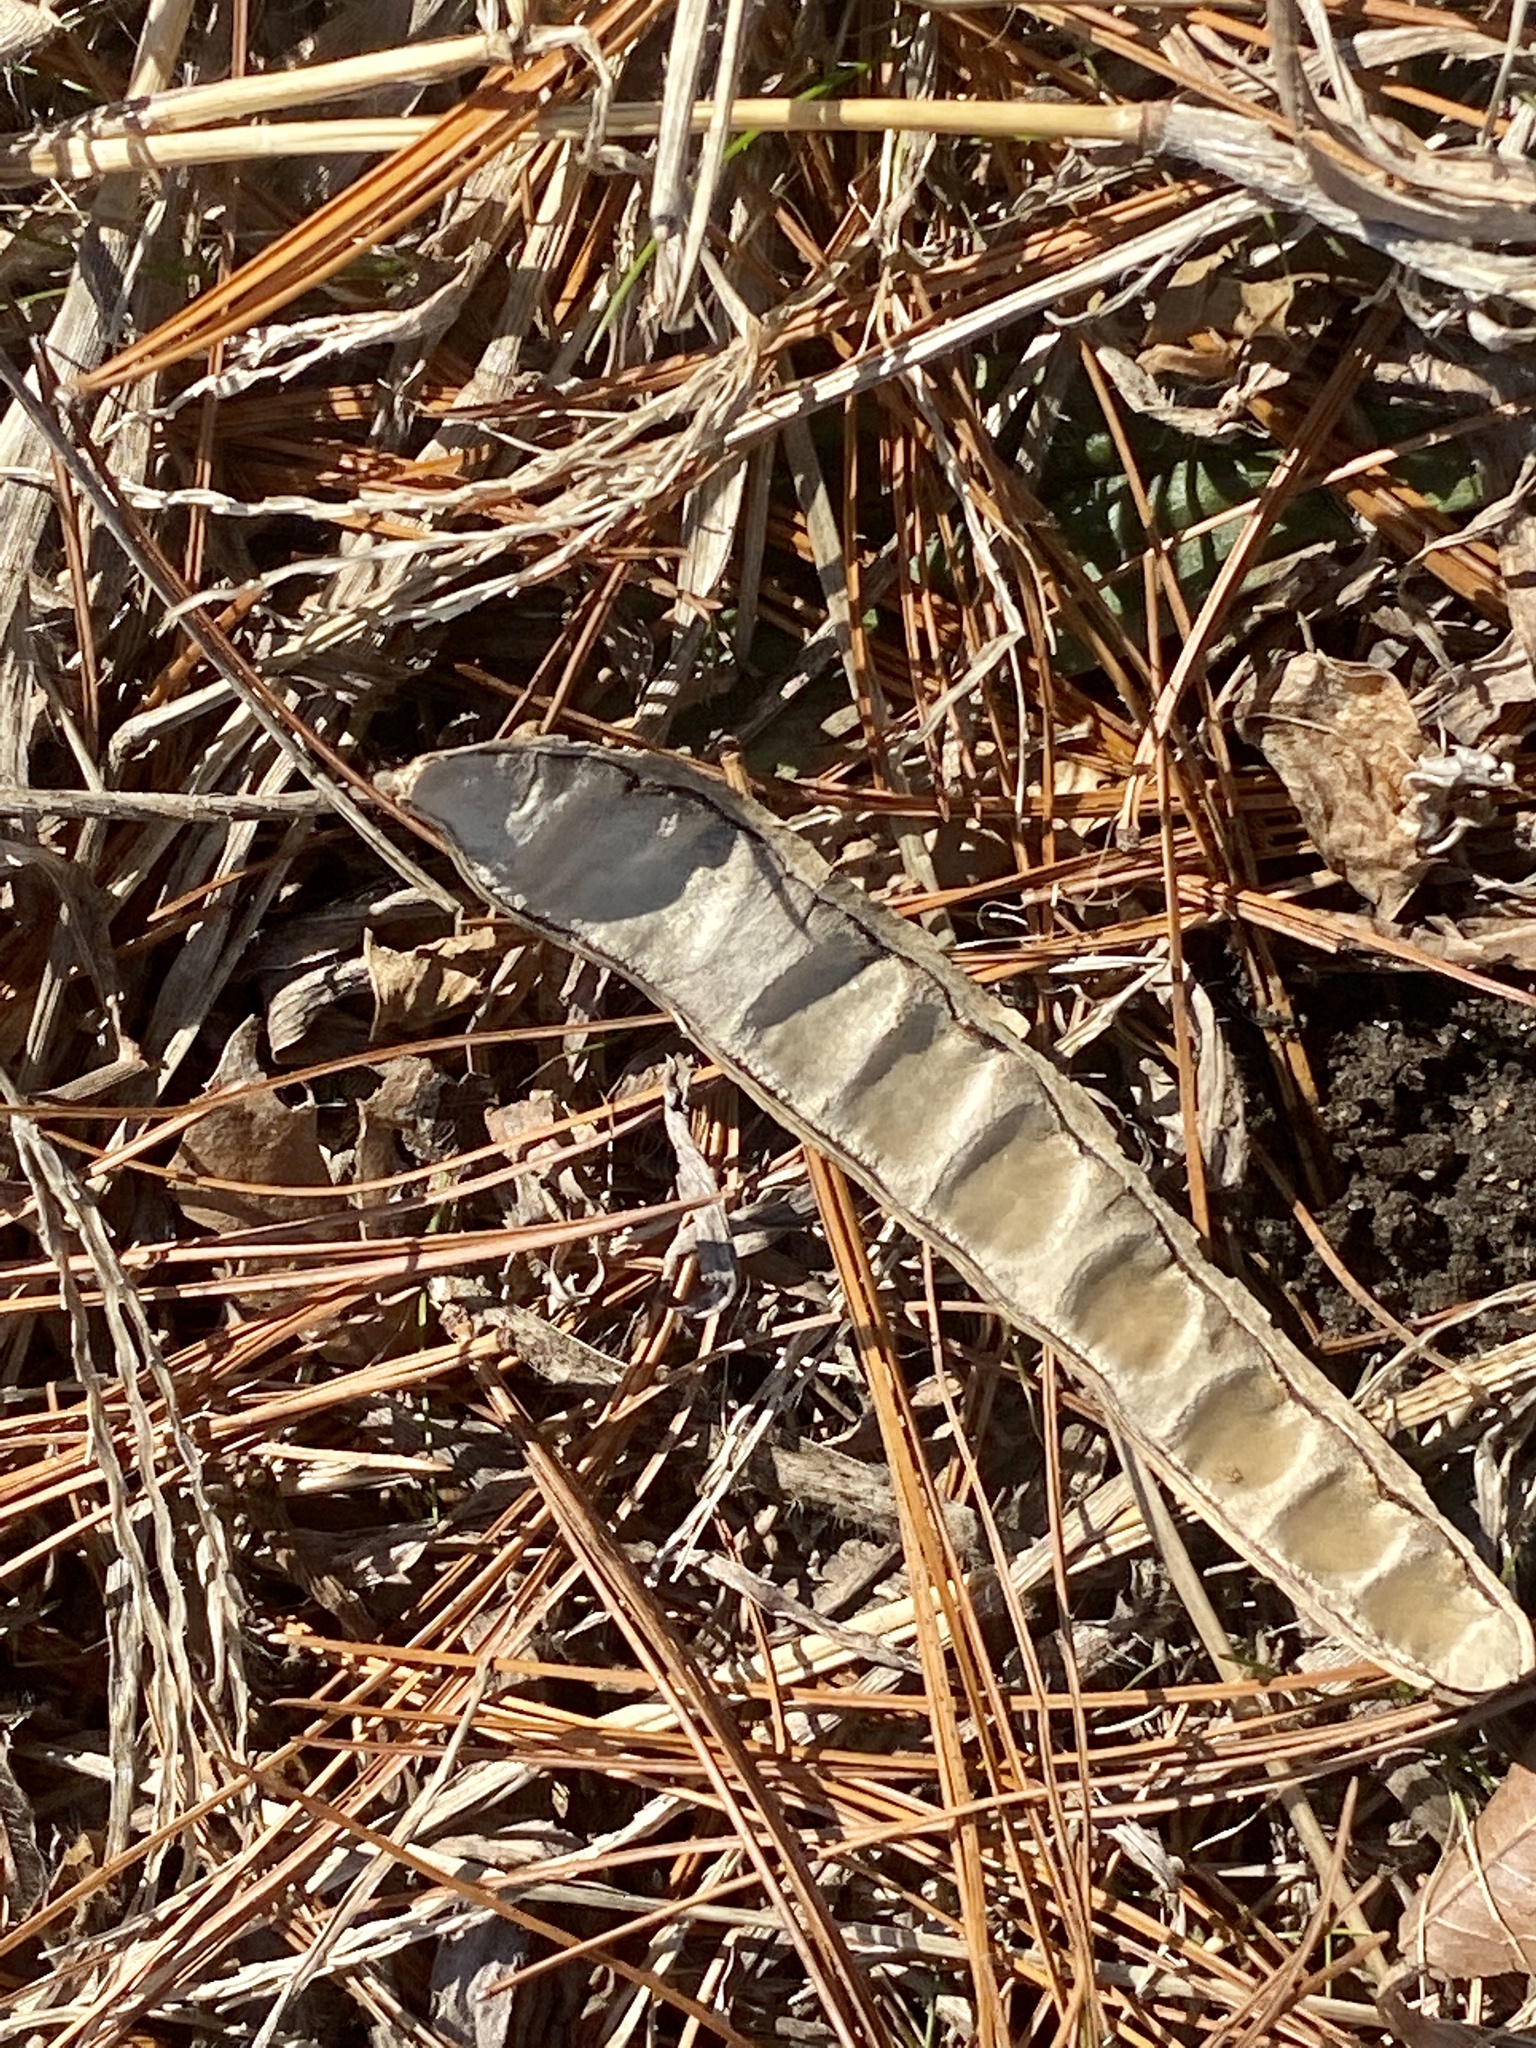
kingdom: Plantae
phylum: Tracheophyta
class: Magnoliopsida
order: Fabales
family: Fabaceae
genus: Robinia
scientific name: Robinia pseudoacacia
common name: Black locust
